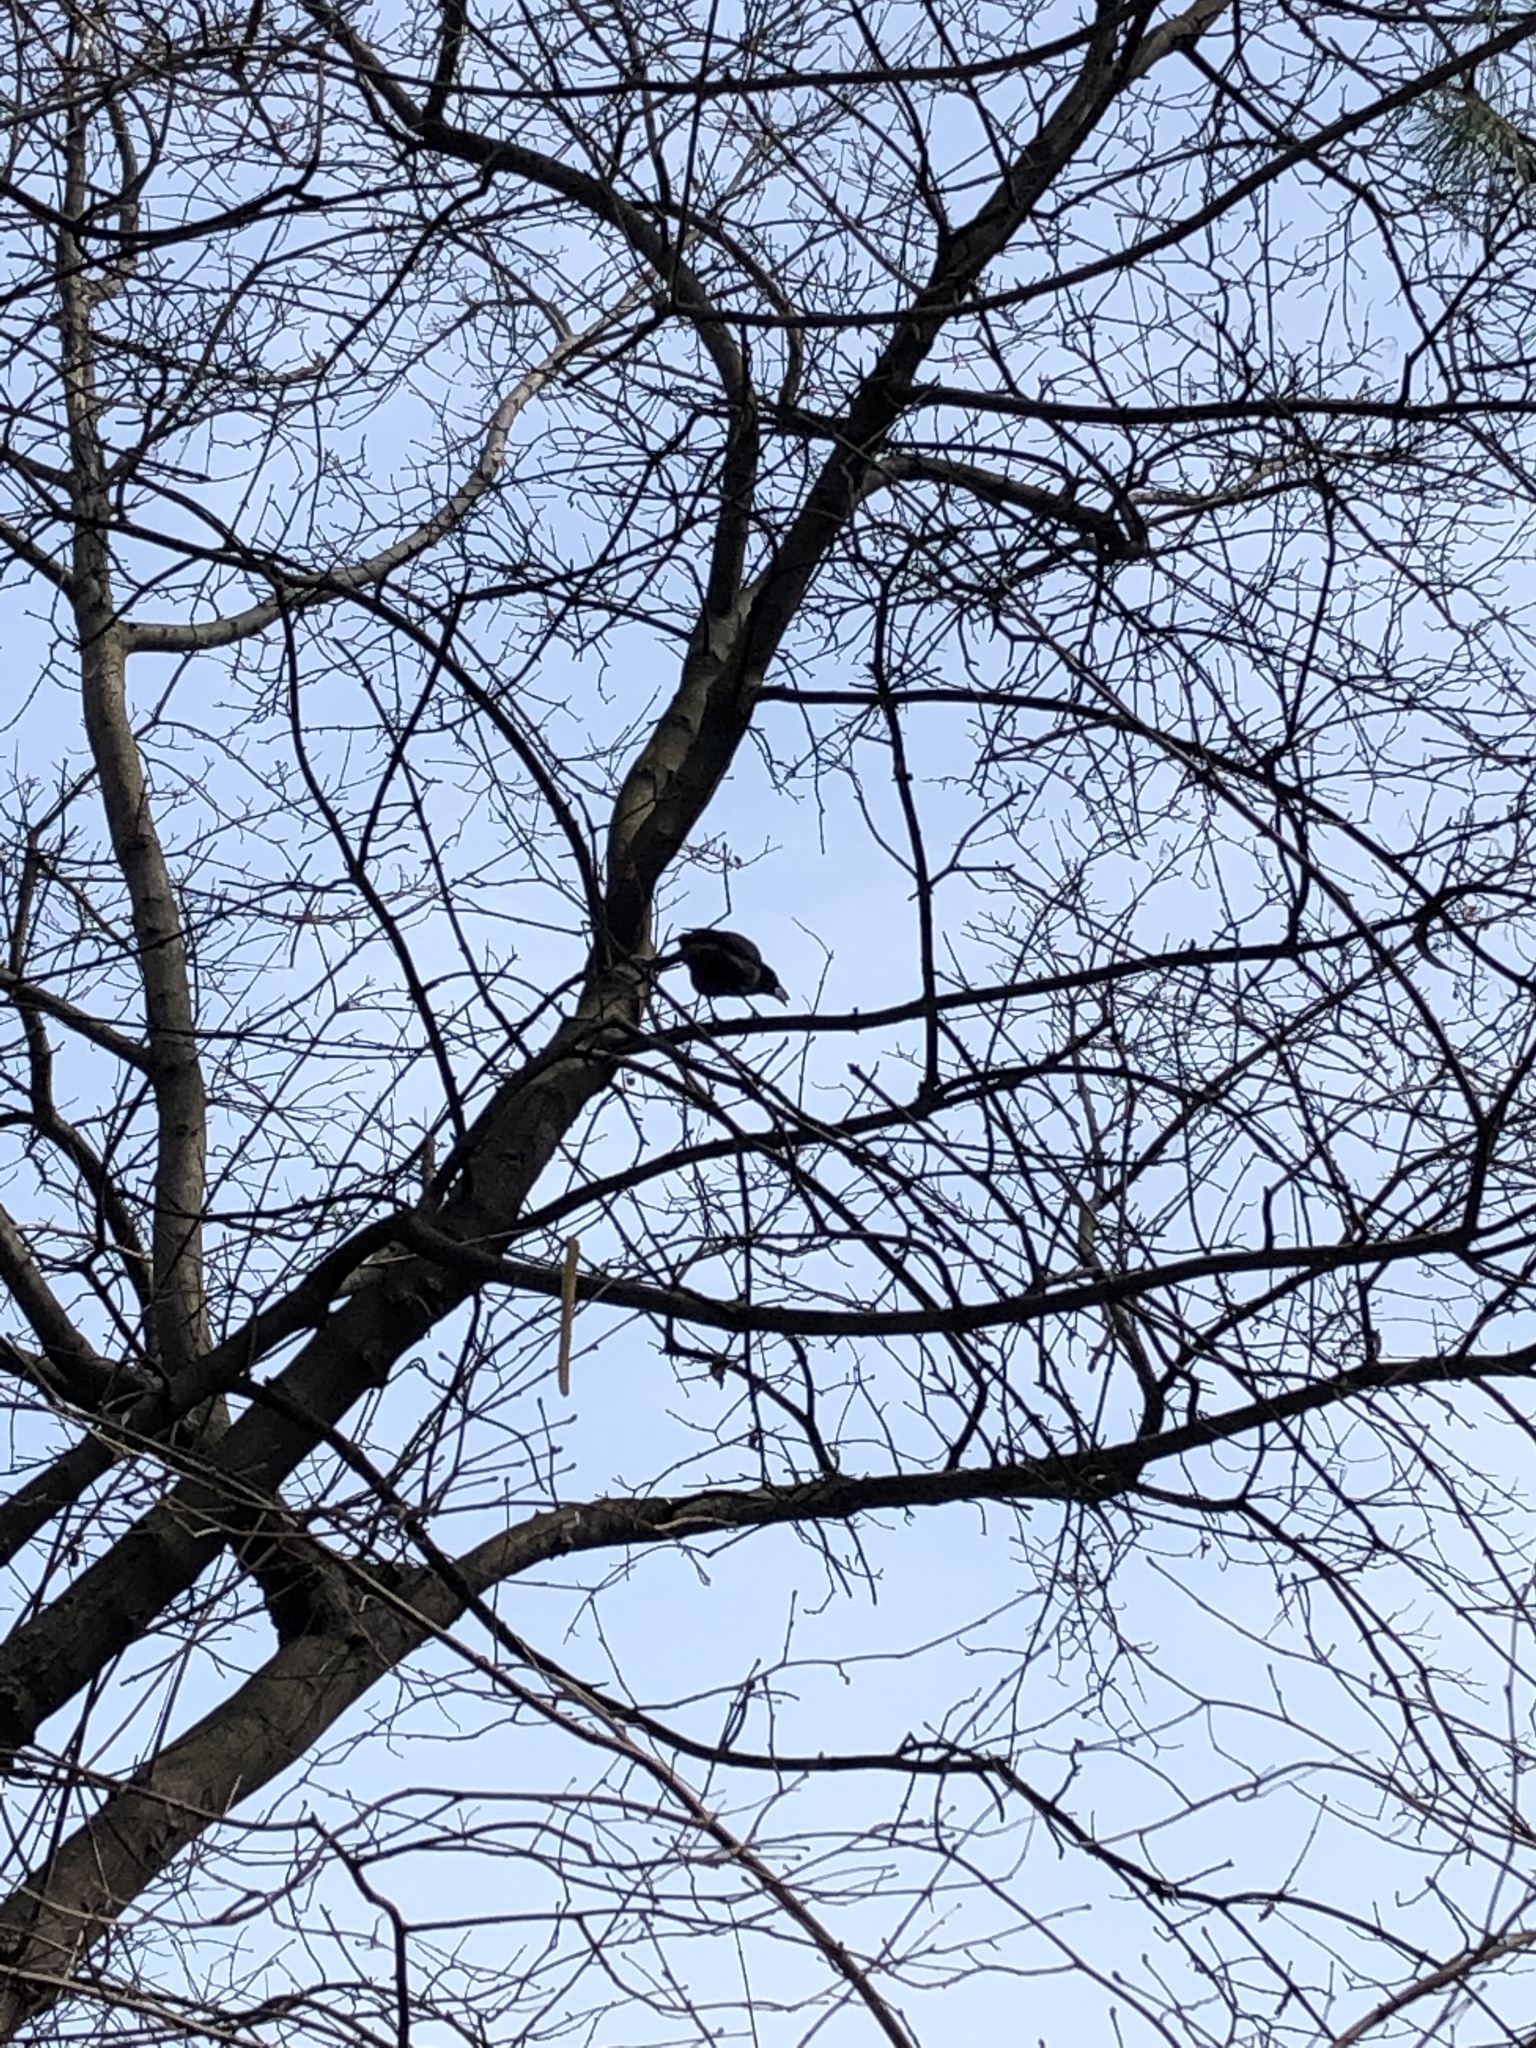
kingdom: Animalia
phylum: Chordata
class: Aves
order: Passeriformes
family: Icteridae
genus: Quiscalus
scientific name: Quiscalus quiscula
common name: Common grackle
